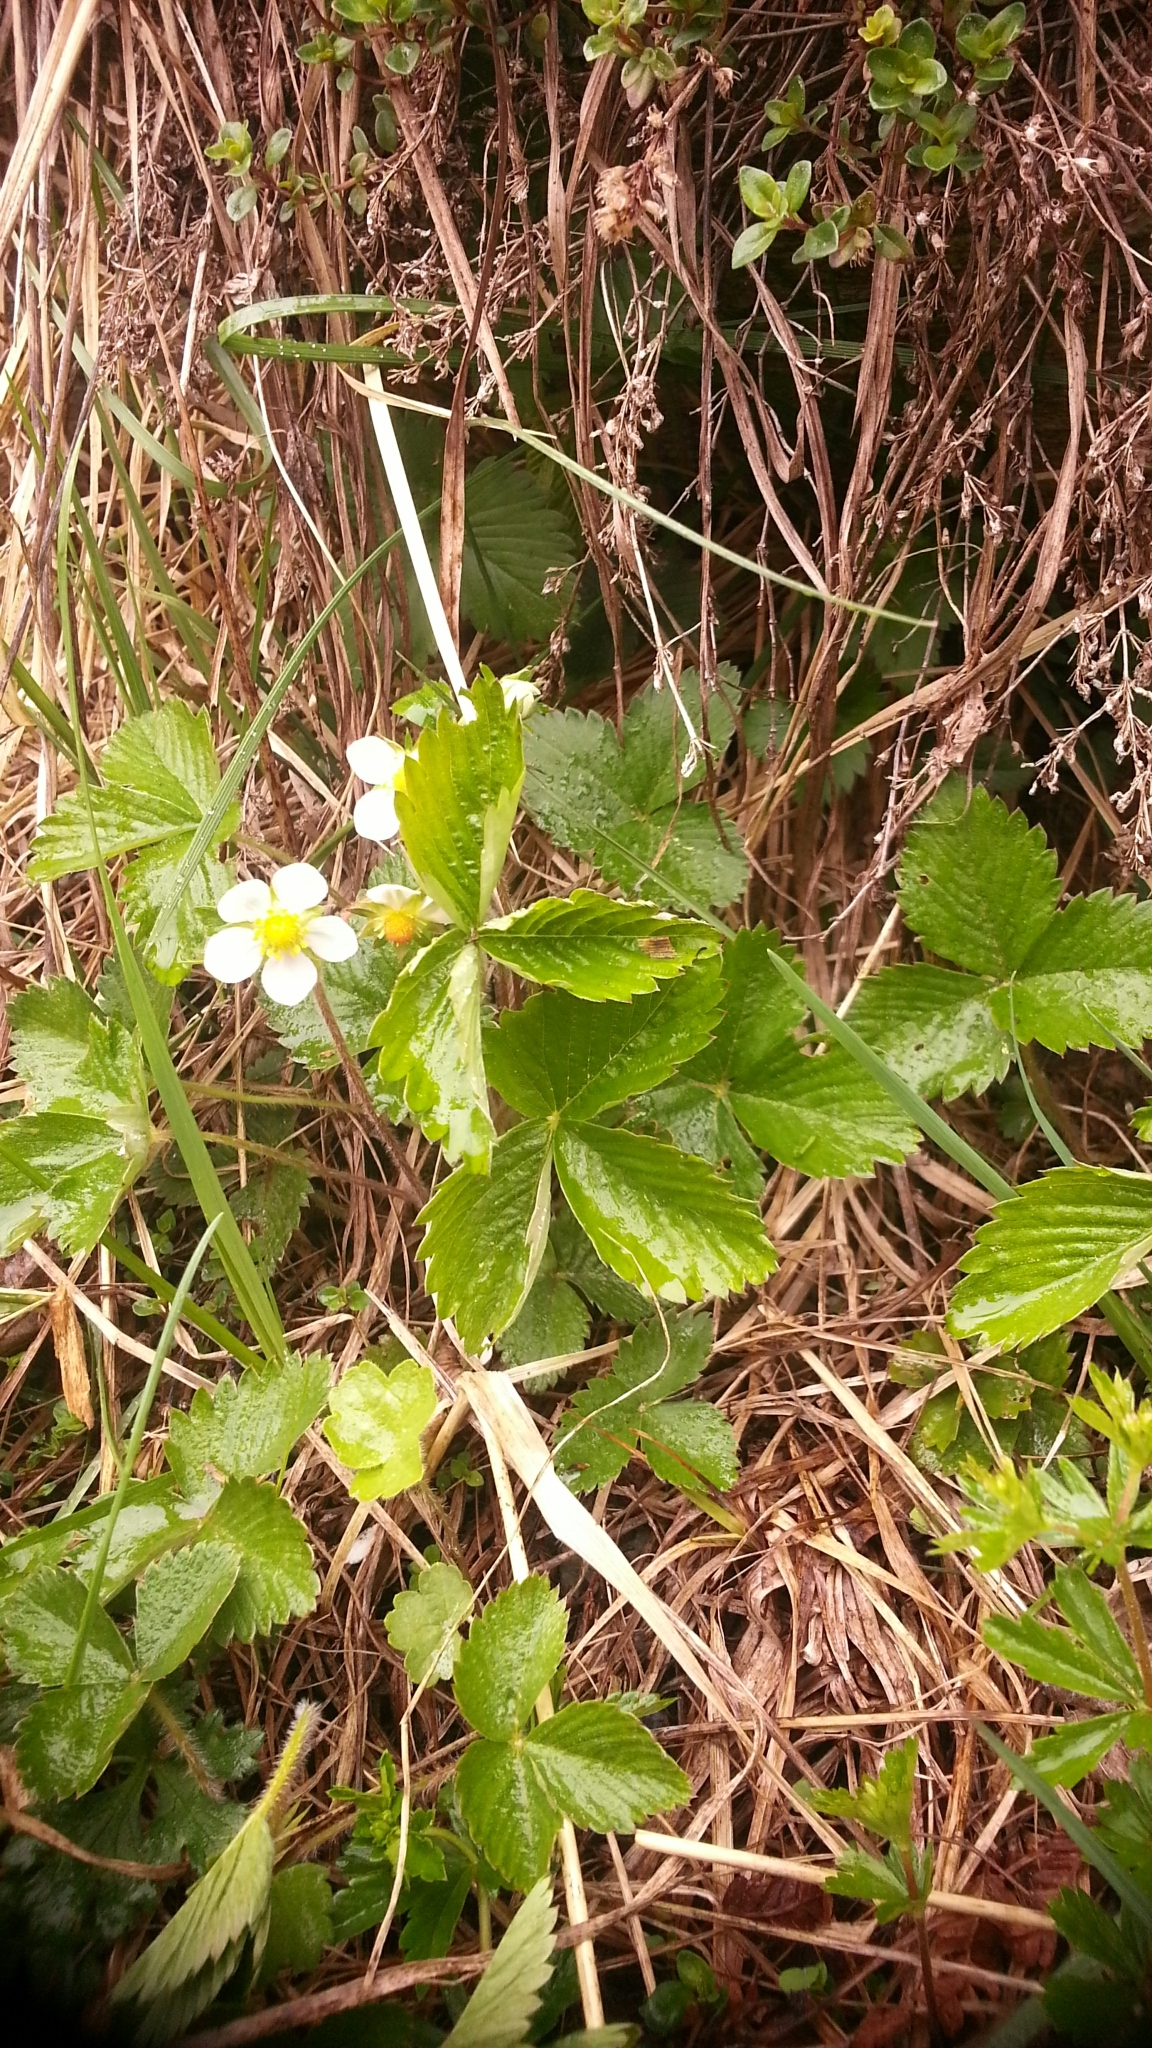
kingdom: Plantae
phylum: Tracheophyta
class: Magnoliopsida
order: Rosales
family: Rosaceae
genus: Fragaria
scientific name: Fragaria vesca
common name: Wild strawberry
